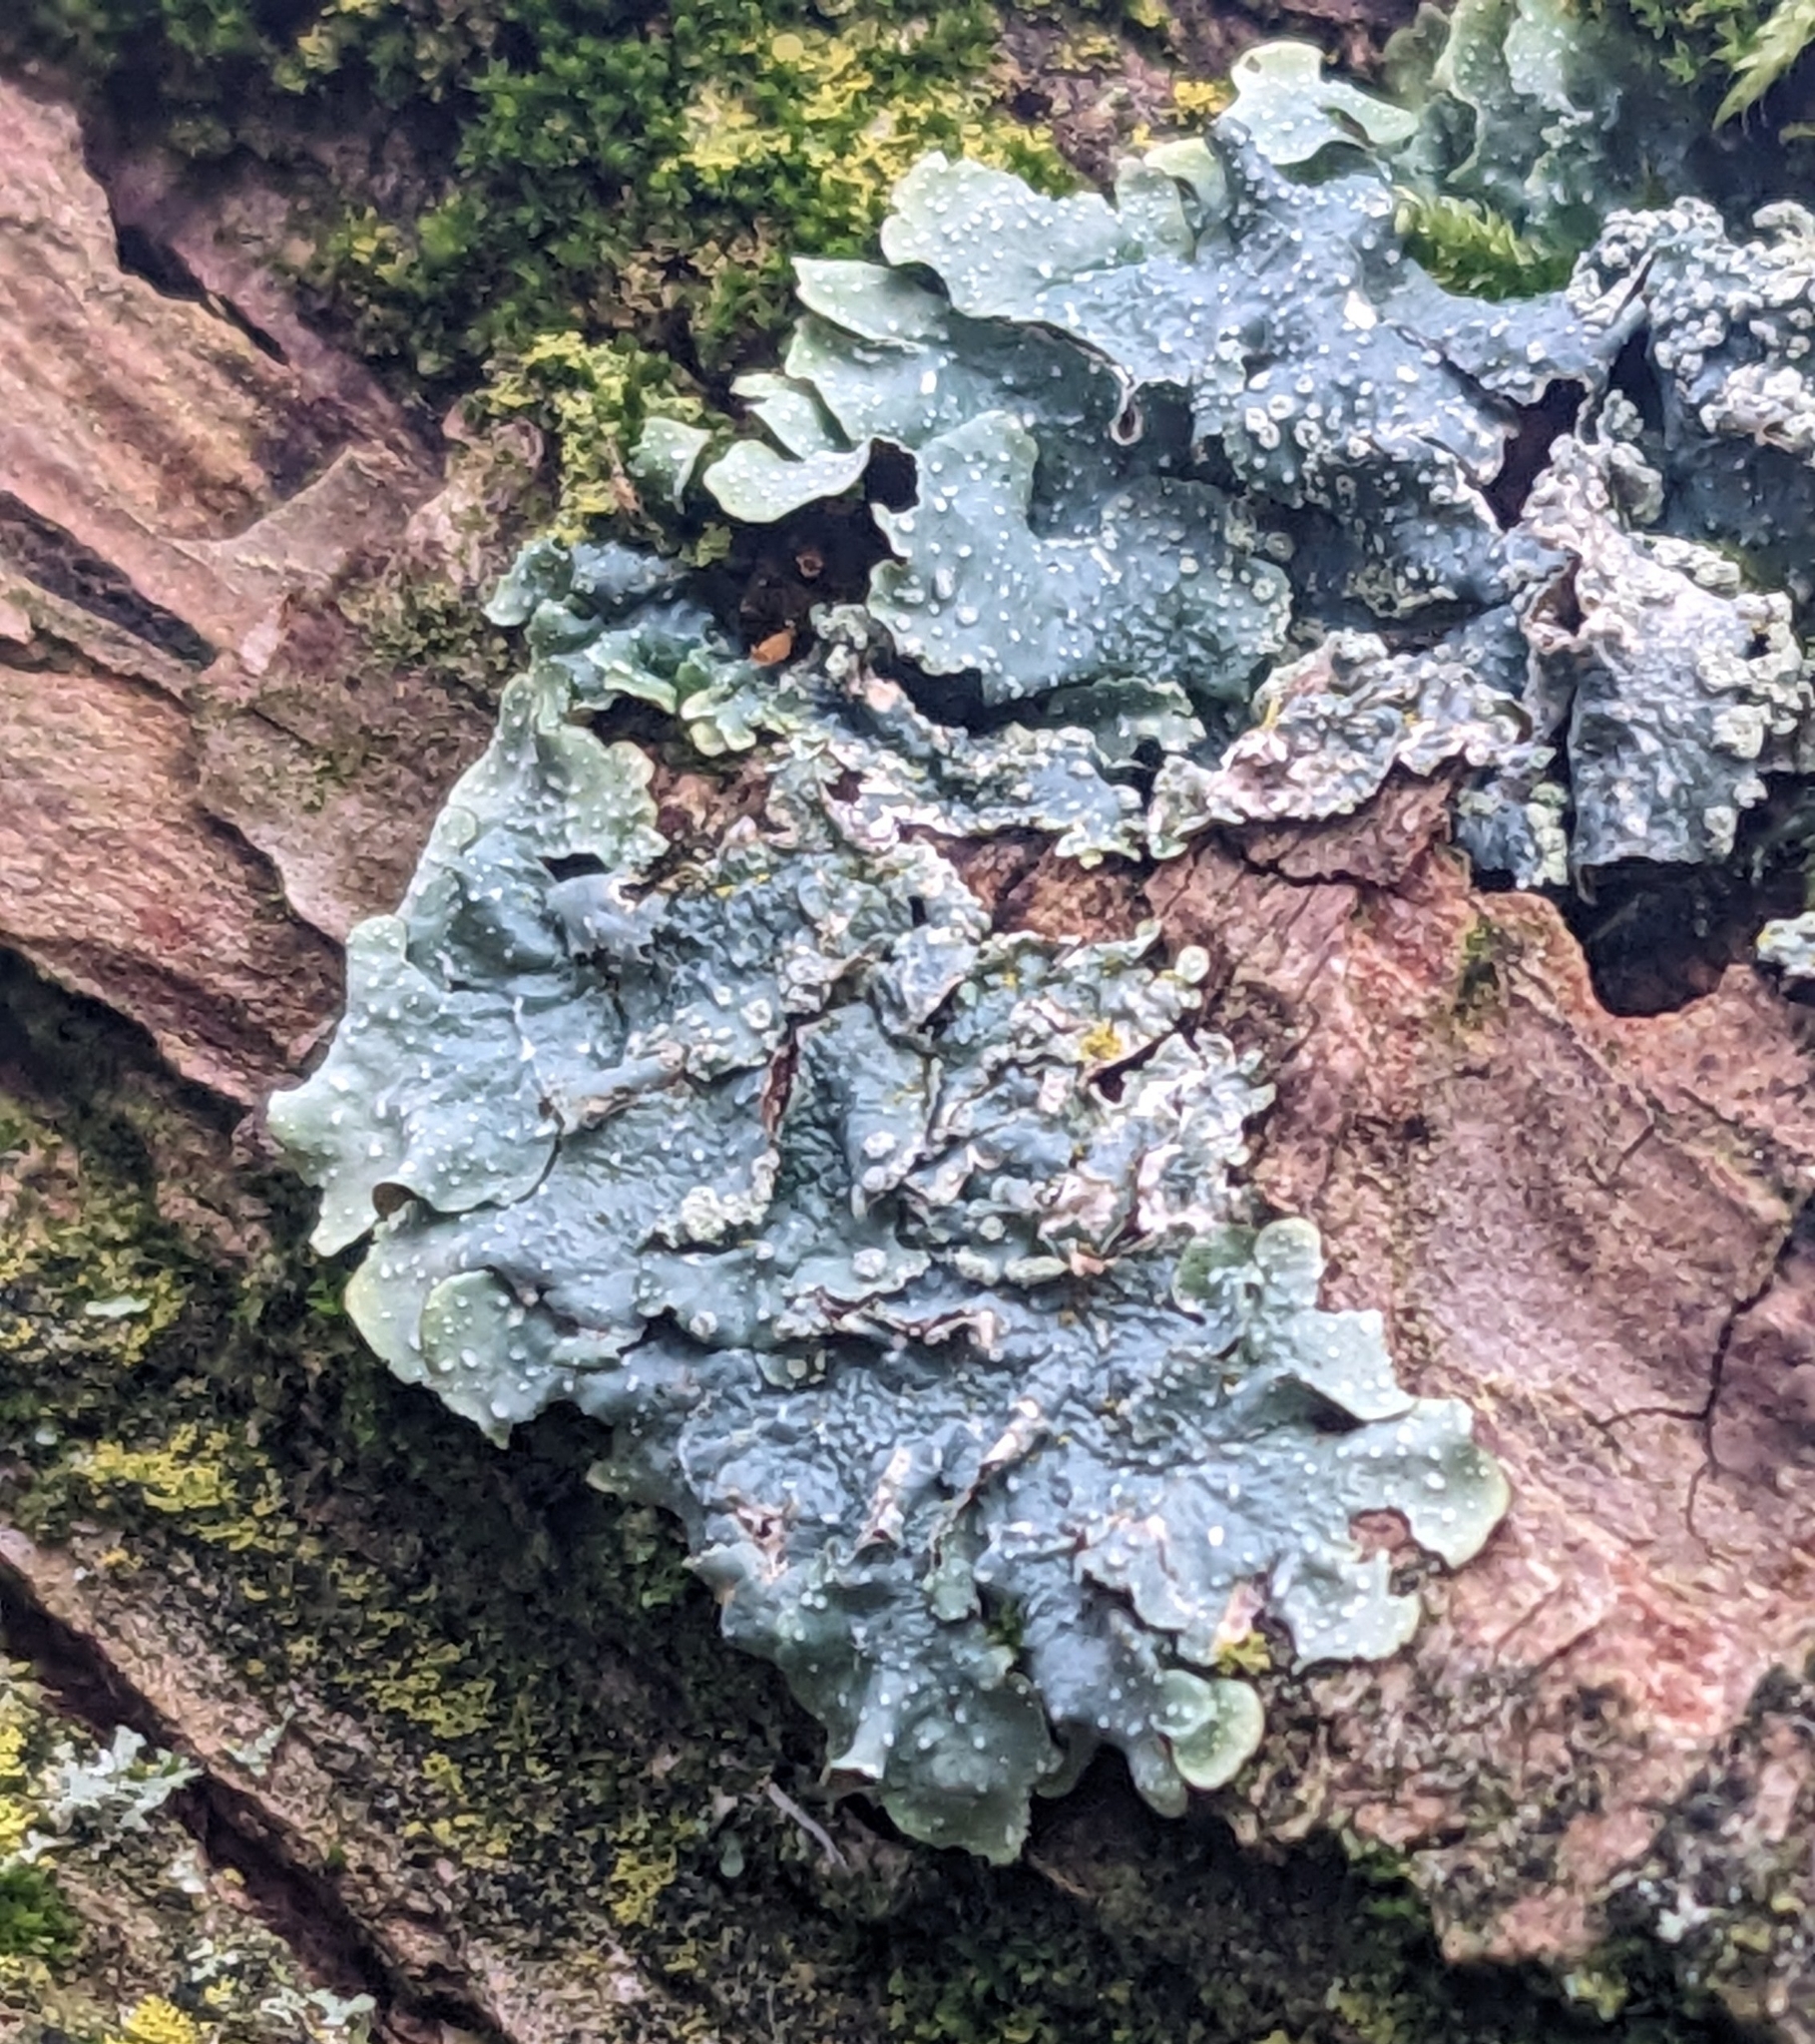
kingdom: Fungi
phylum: Ascomycota
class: Lecanoromycetes
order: Lecanorales
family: Parmeliaceae
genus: Punctelia
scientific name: Punctelia borreri
